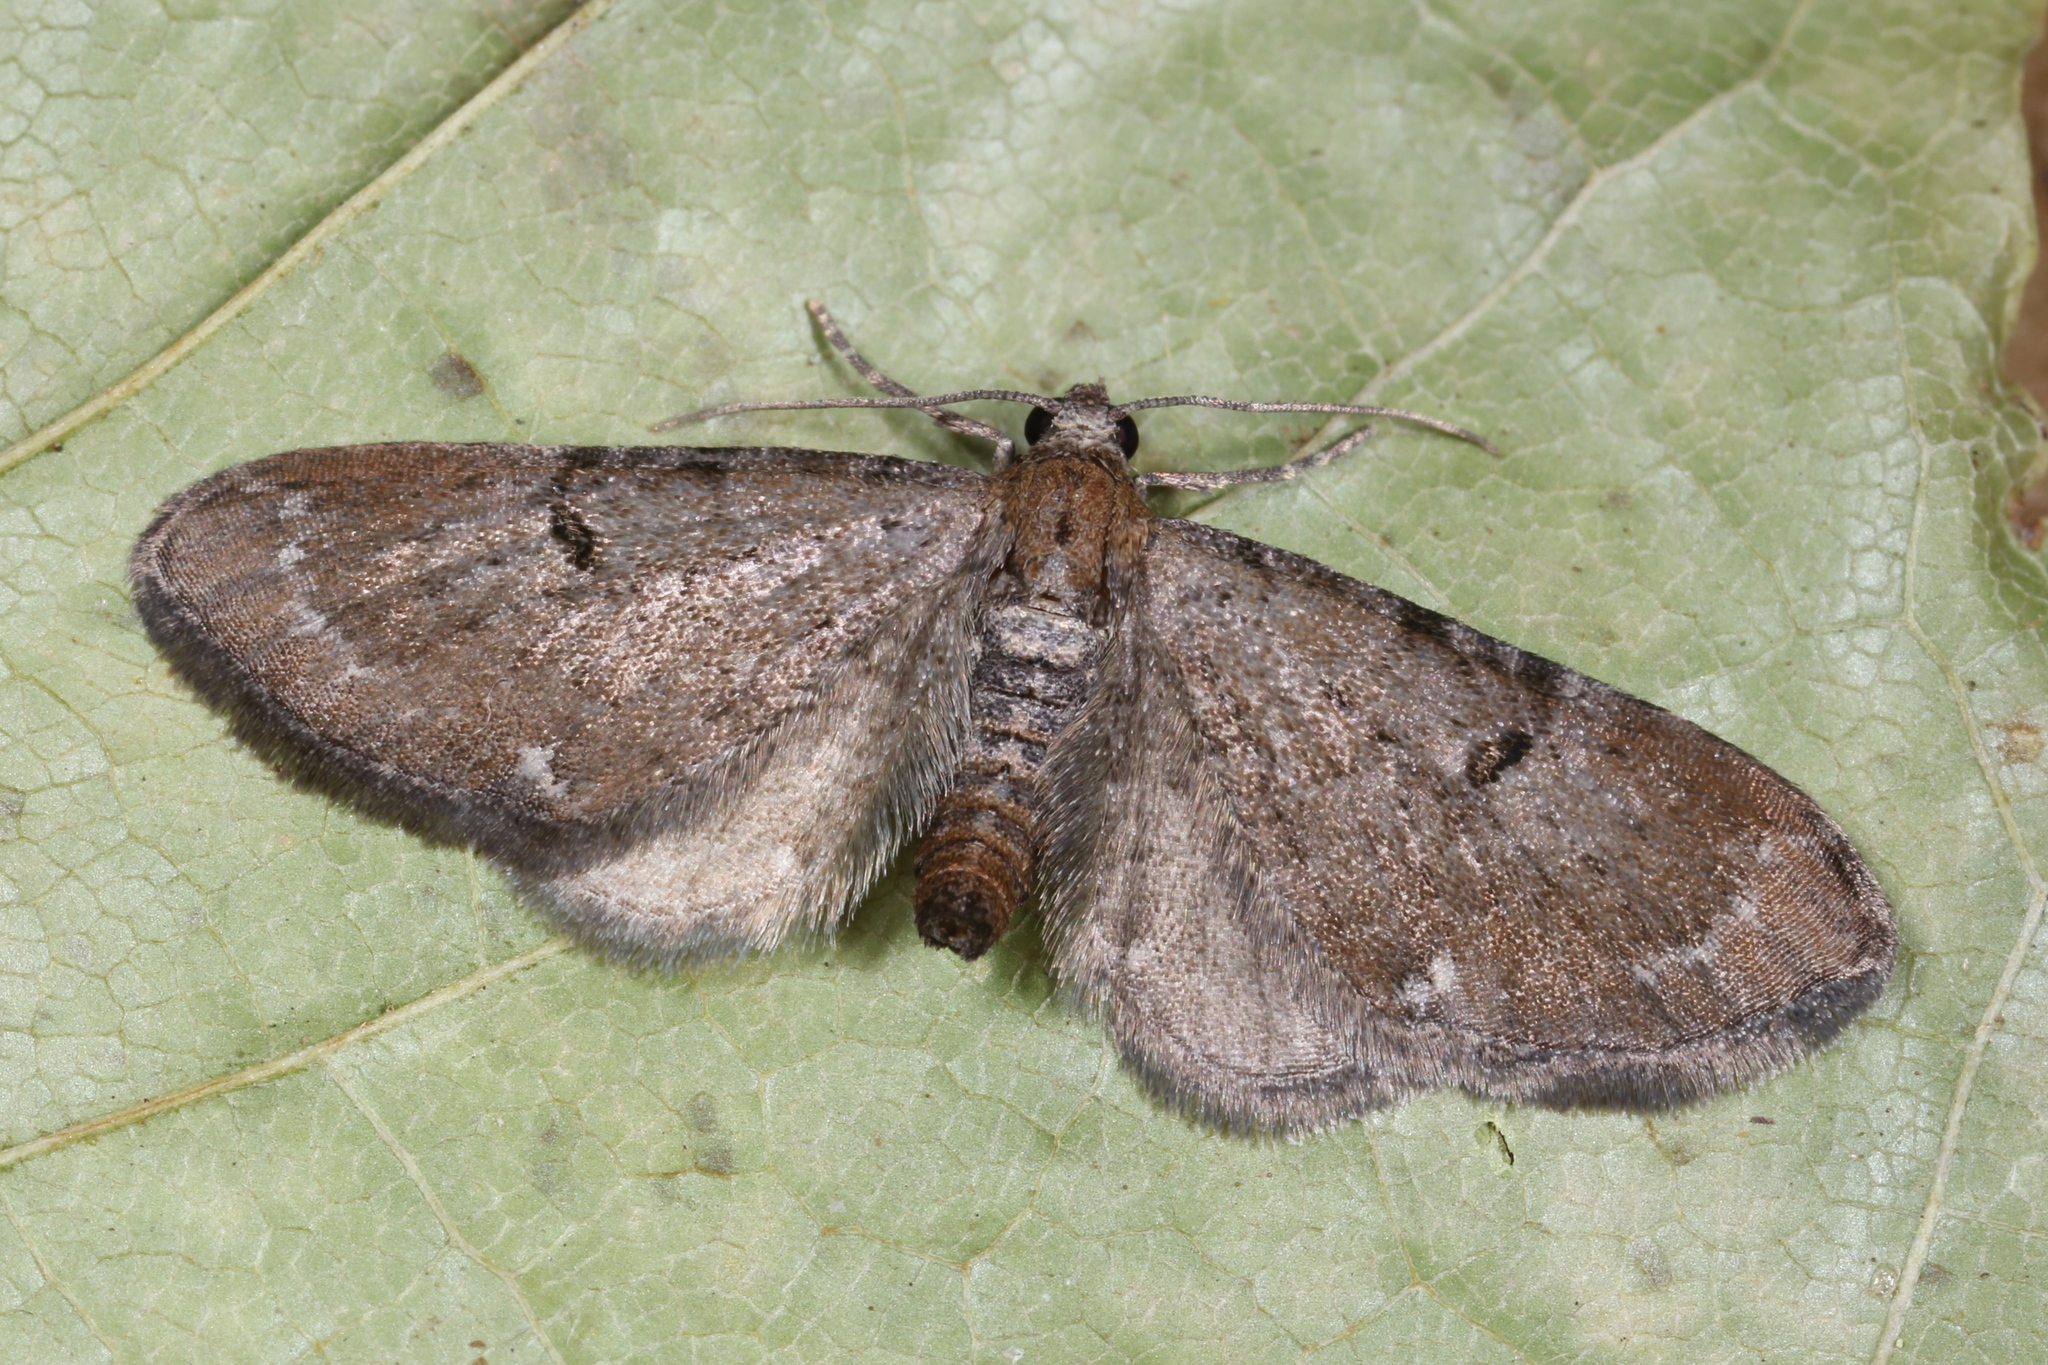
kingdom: Animalia
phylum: Arthropoda
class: Insecta
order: Lepidoptera
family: Geometridae
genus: Eupithecia
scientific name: Eupithecia absinthiata
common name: Wormwood pug
